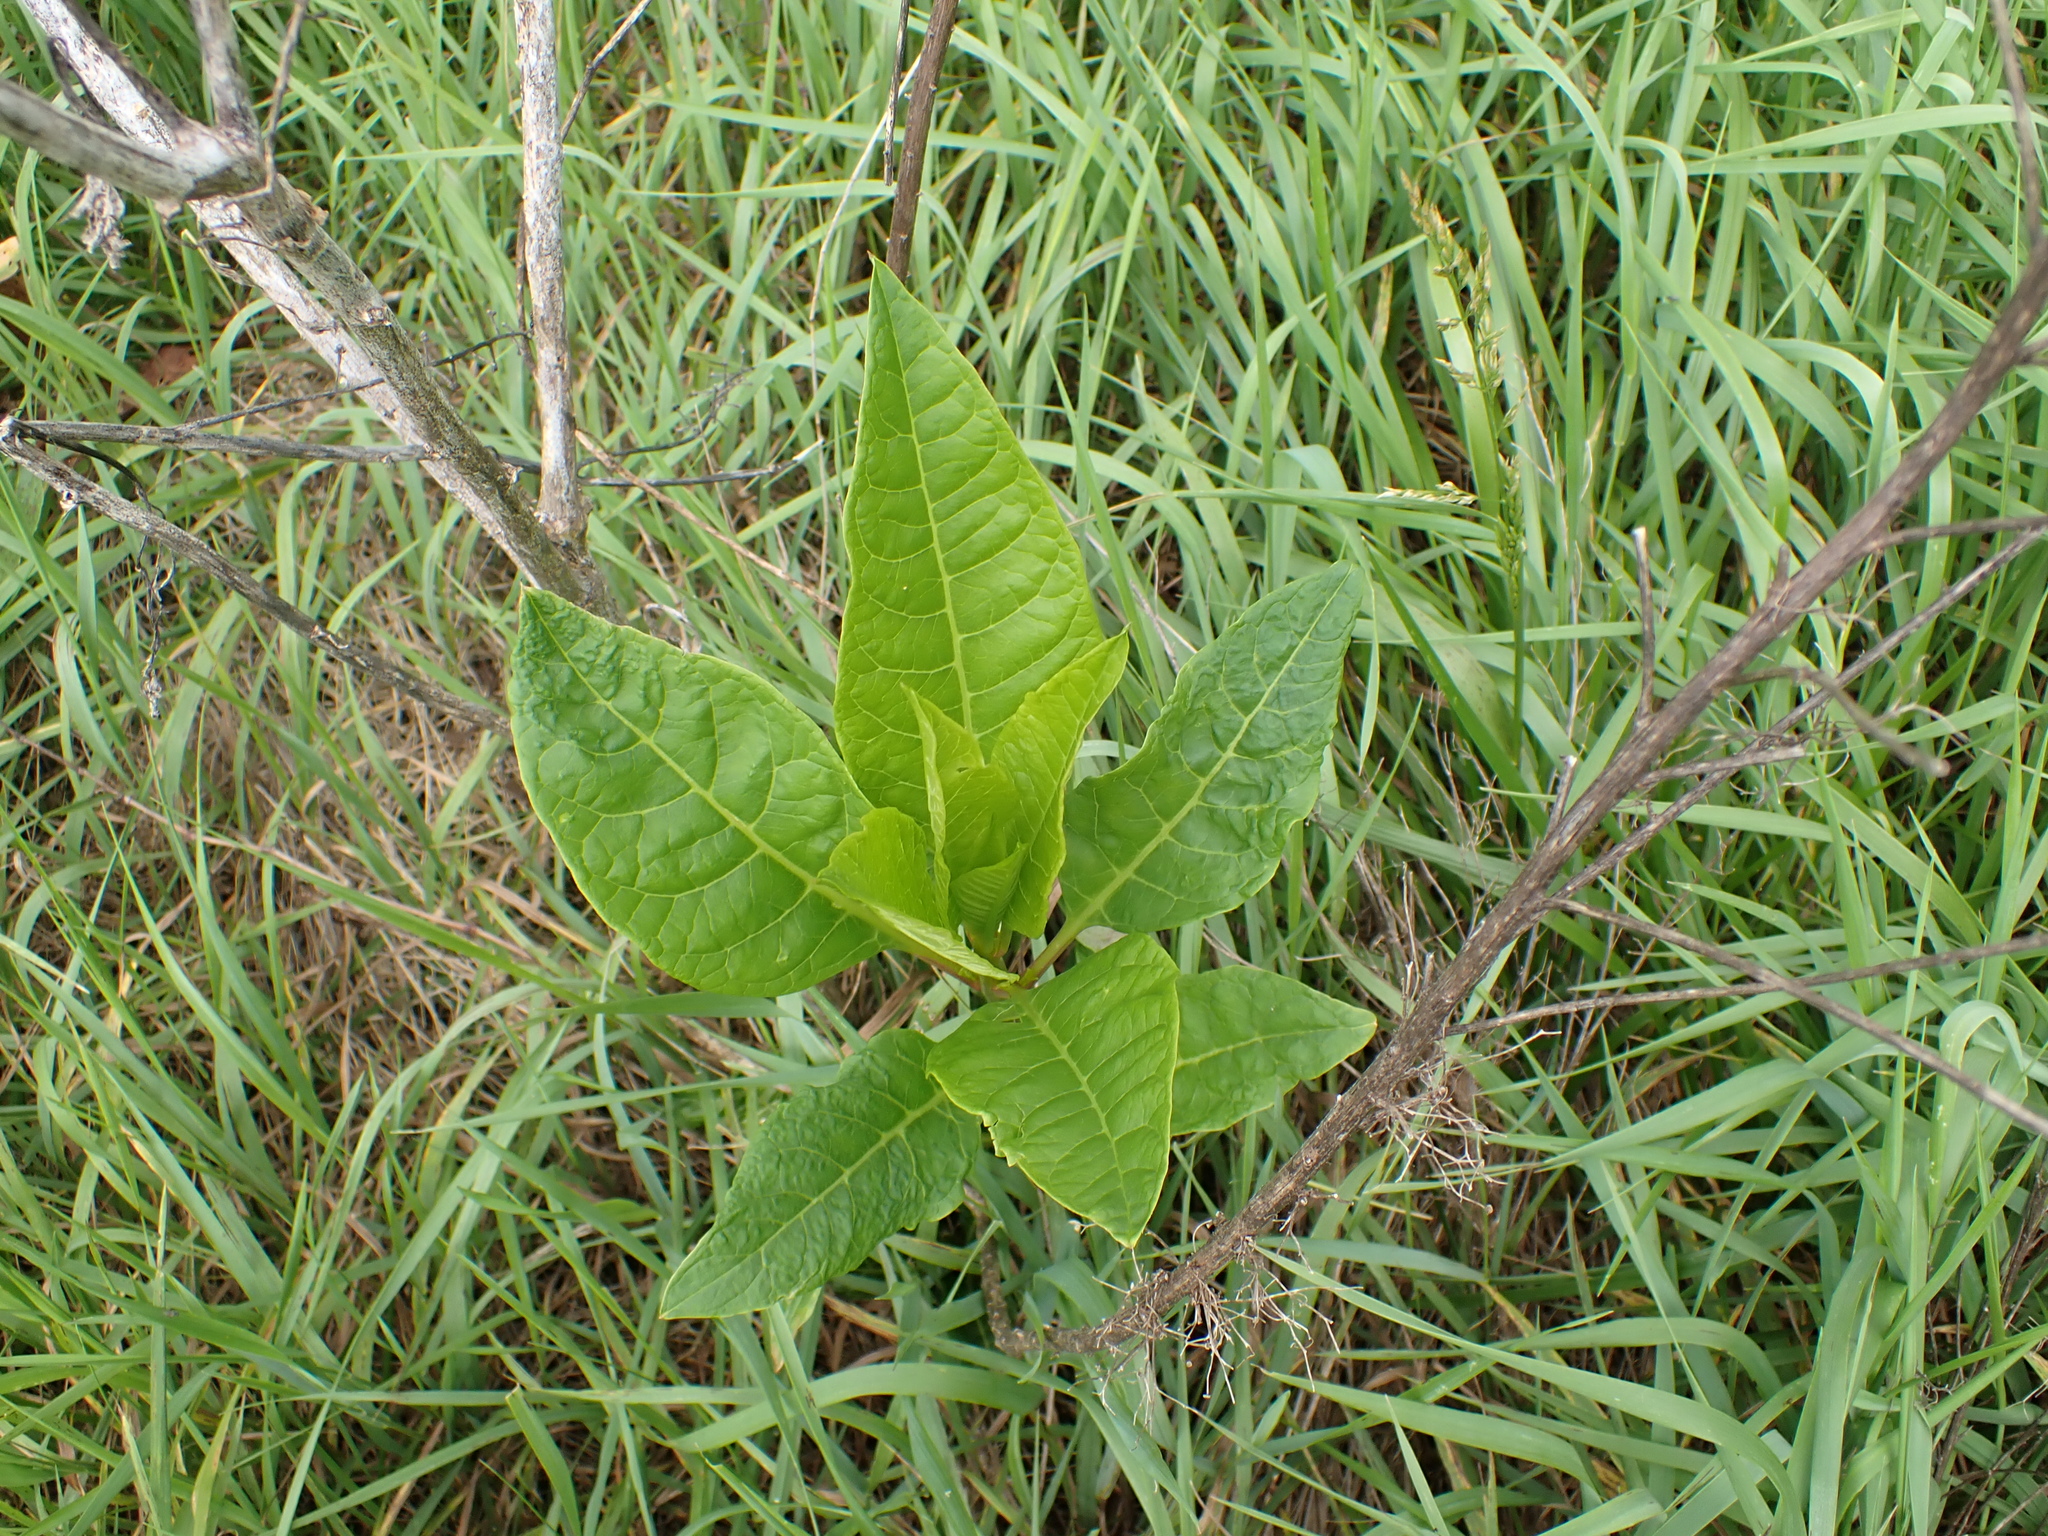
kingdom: Plantae
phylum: Tracheophyta
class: Magnoliopsida
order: Caryophyllales
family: Phytolaccaceae
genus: Phytolacca
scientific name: Phytolacca americana
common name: American pokeweed
